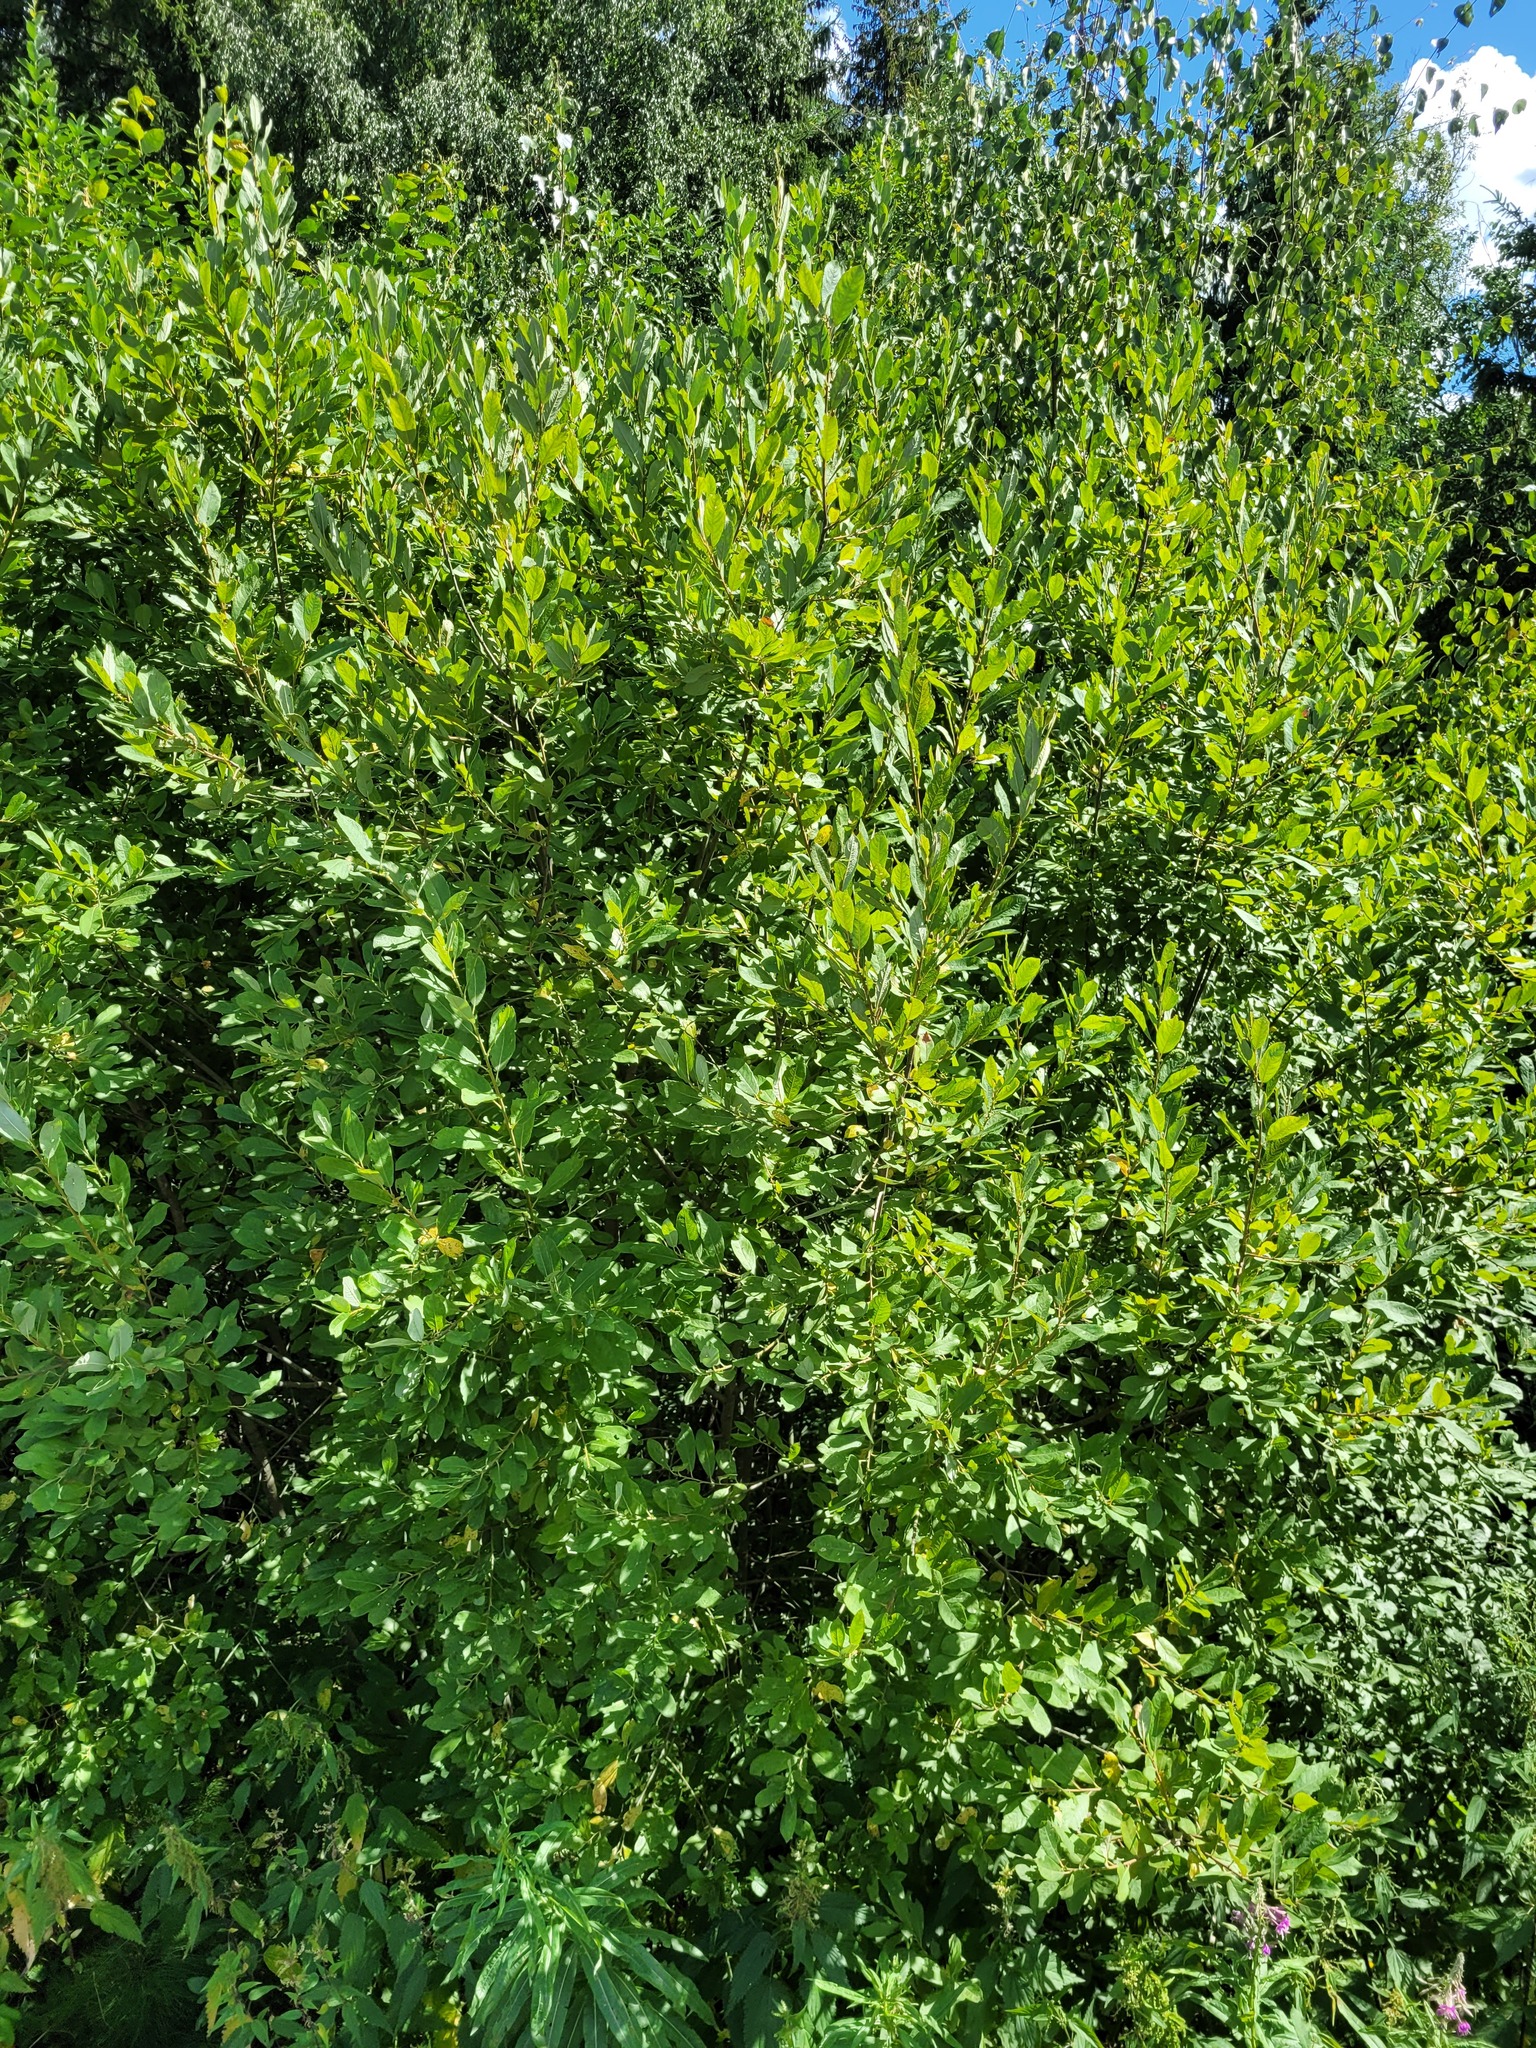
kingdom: Plantae
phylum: Tracheophyta
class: Magnoliopsida
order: Malpighiales
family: Salicaceae
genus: Salix
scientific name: Salix cinerea
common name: Common sallow
